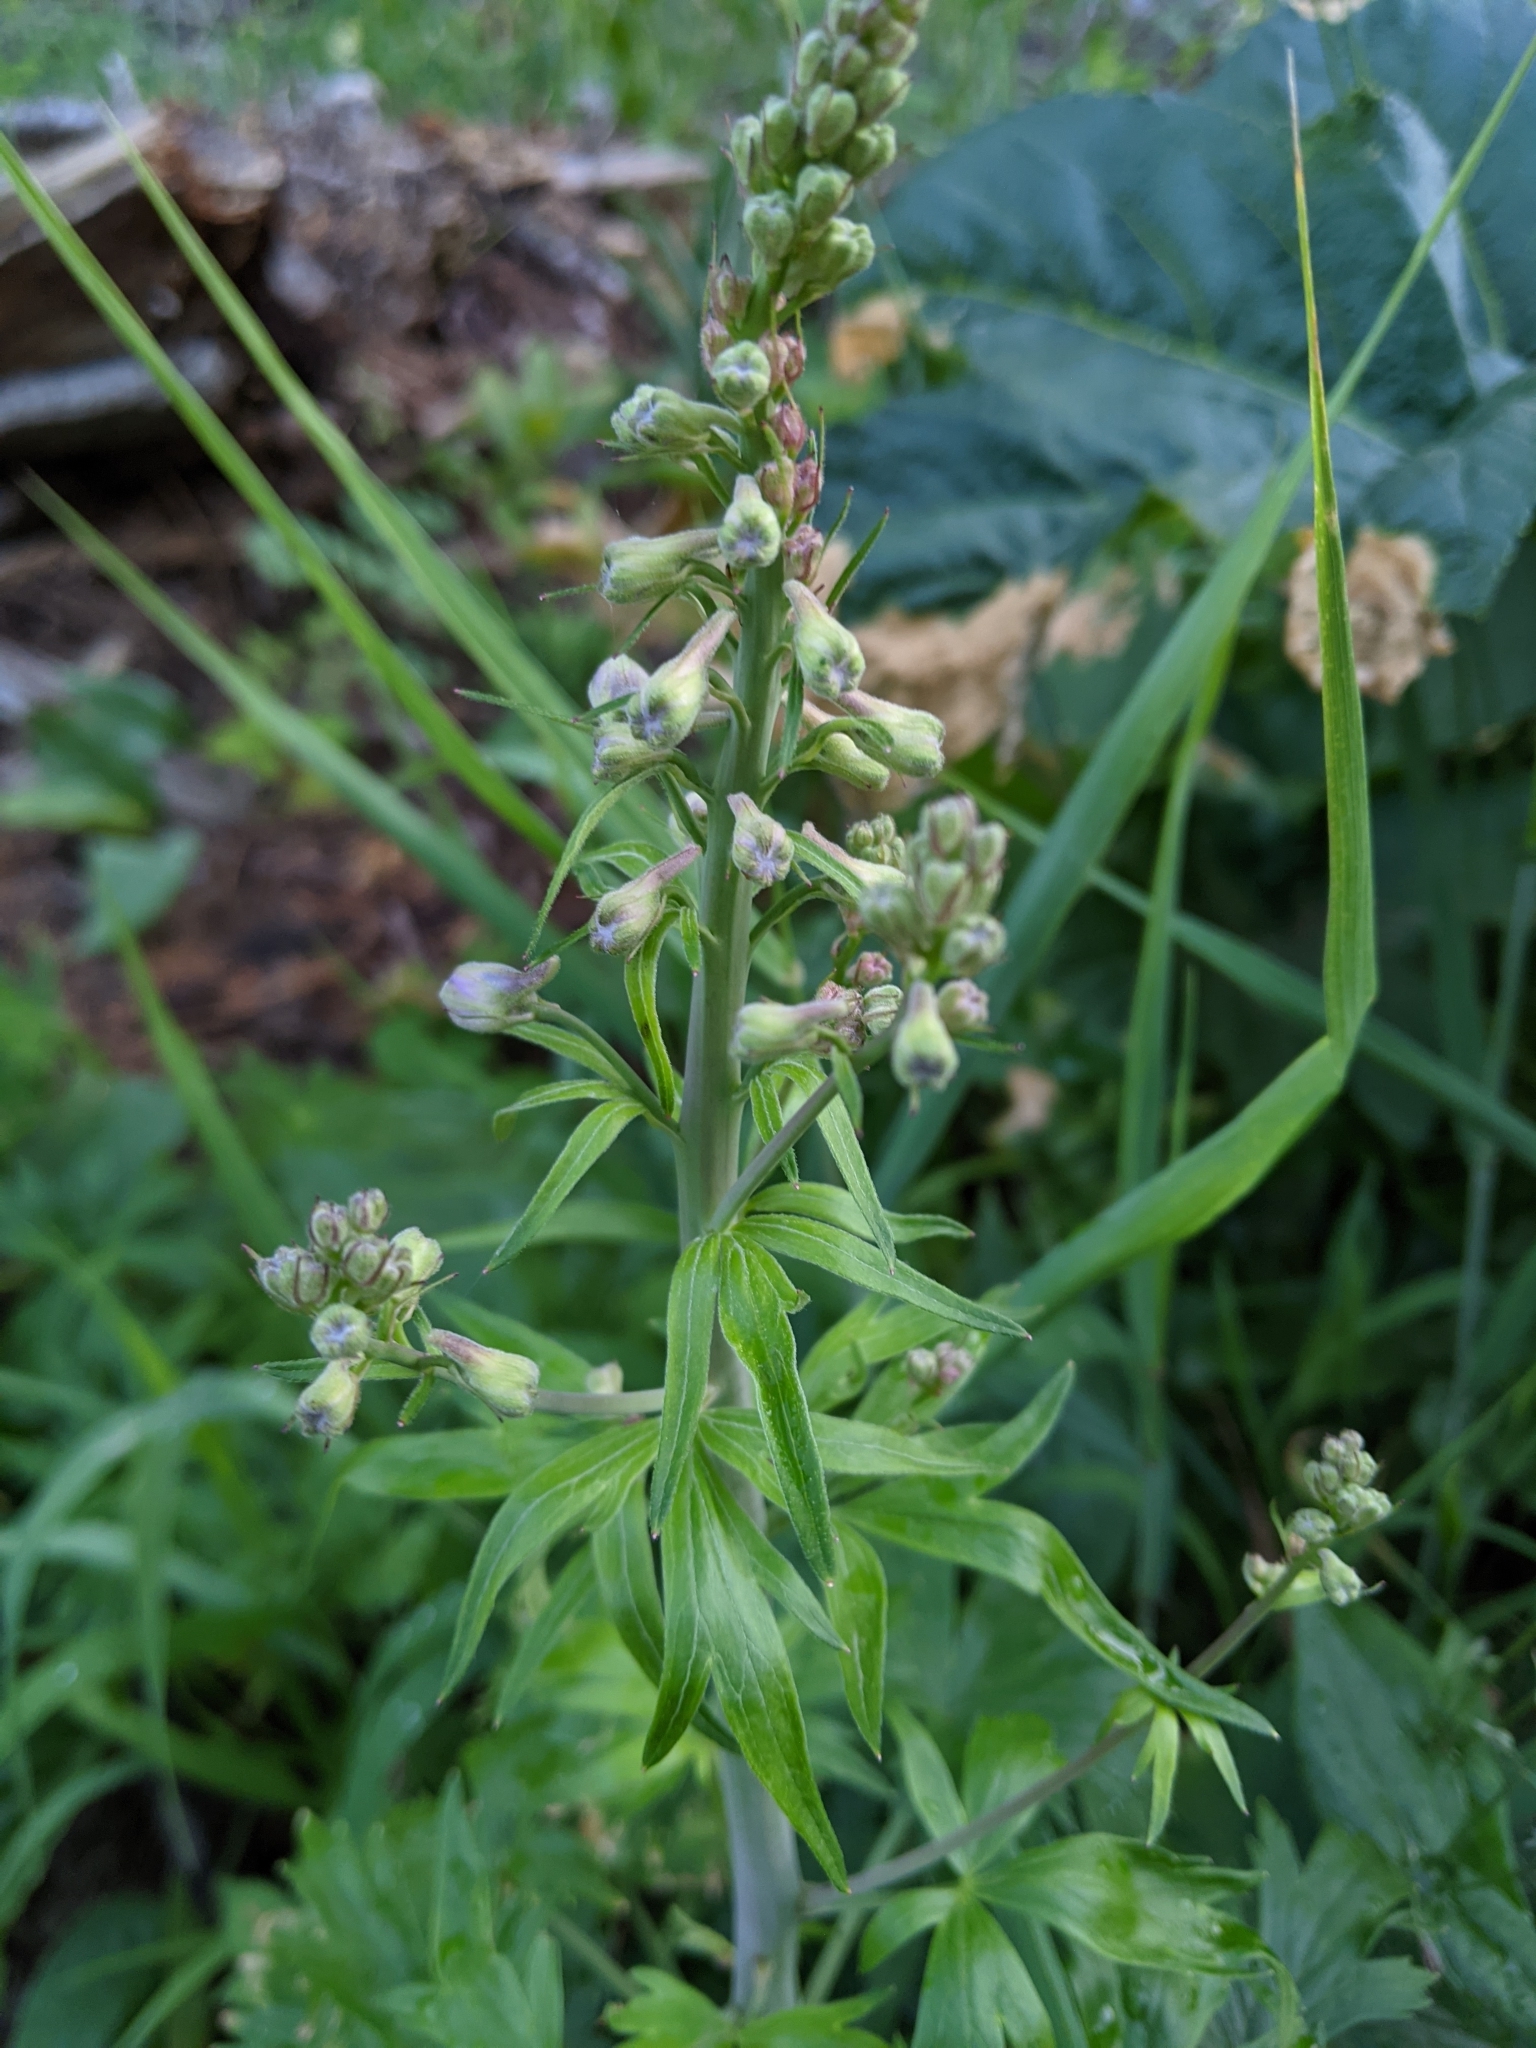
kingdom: Plantae
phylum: Tracheophyta
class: Magnoliopsida
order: Ranunculales
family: Ranunculaceae
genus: Delphinium
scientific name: Delphinium glaucum
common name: Brown's larkspur
